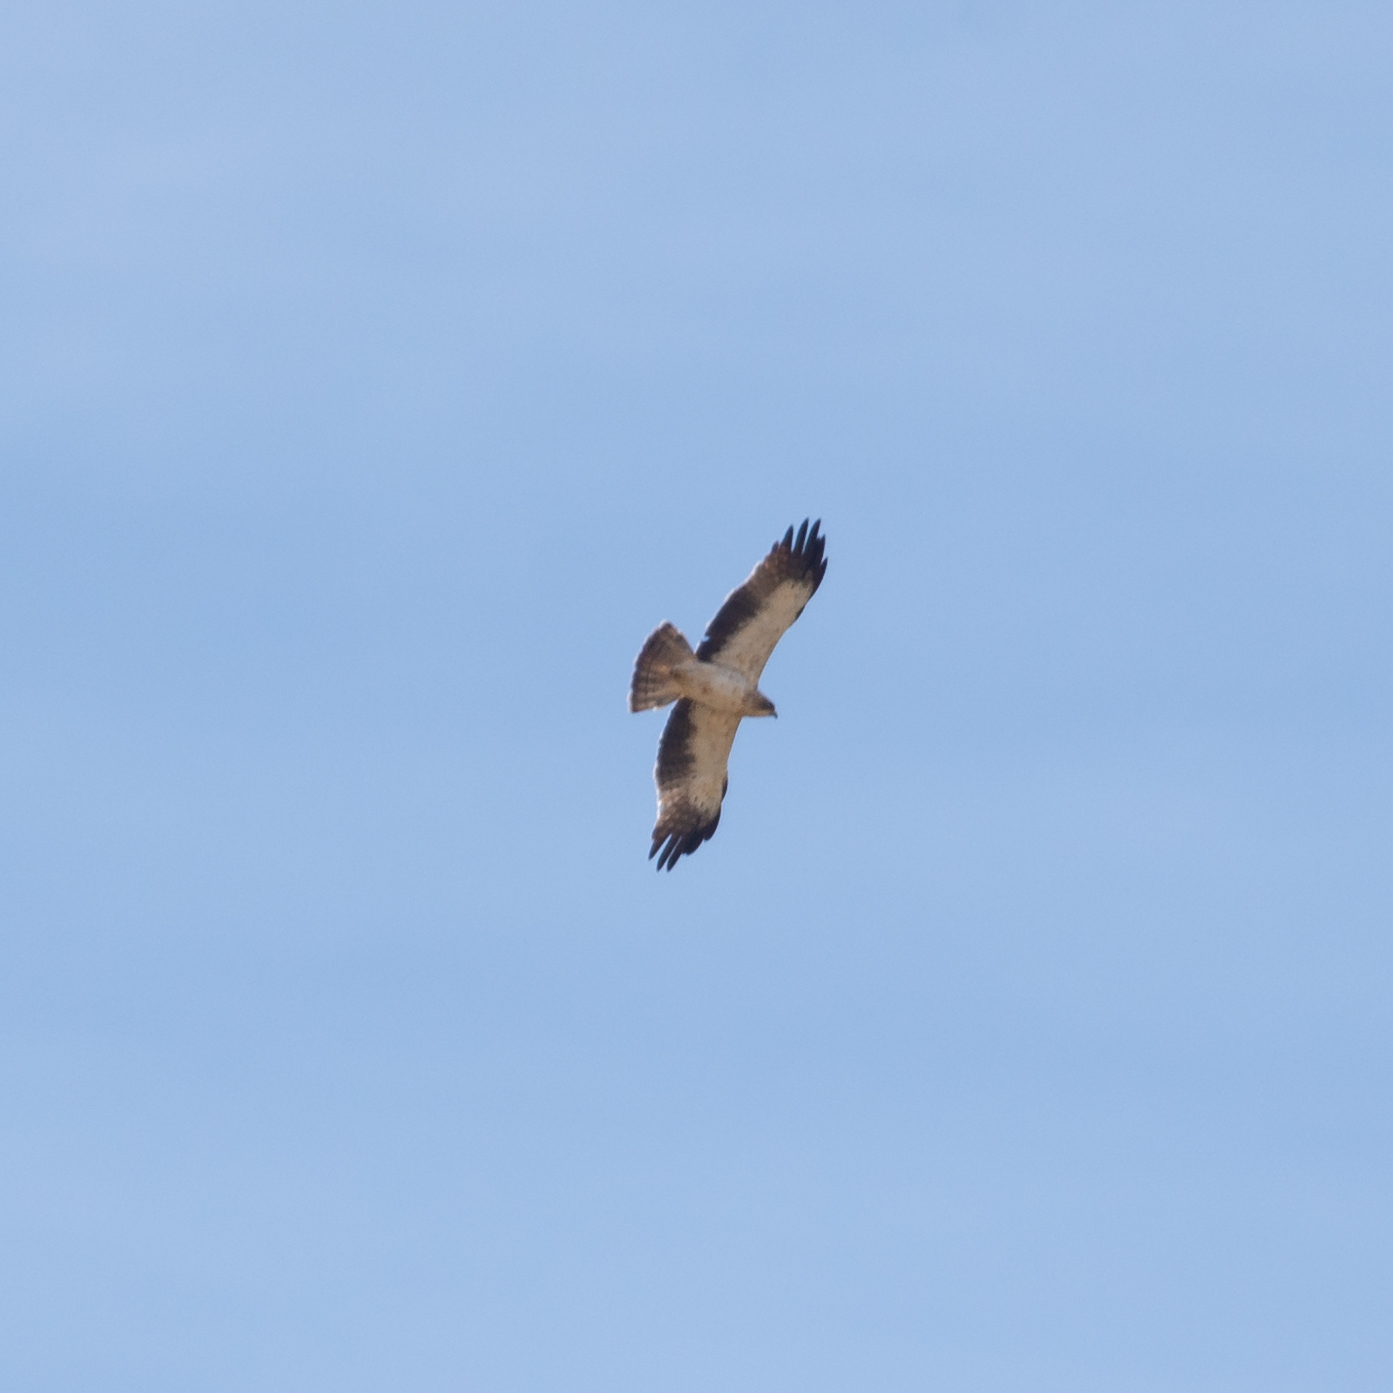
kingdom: Animalia
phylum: Chordata
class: Aves
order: Accipitriformes
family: Accipitridae
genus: Hieraaetus
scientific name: Hieraaetus pennatus
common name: Booted eagle
